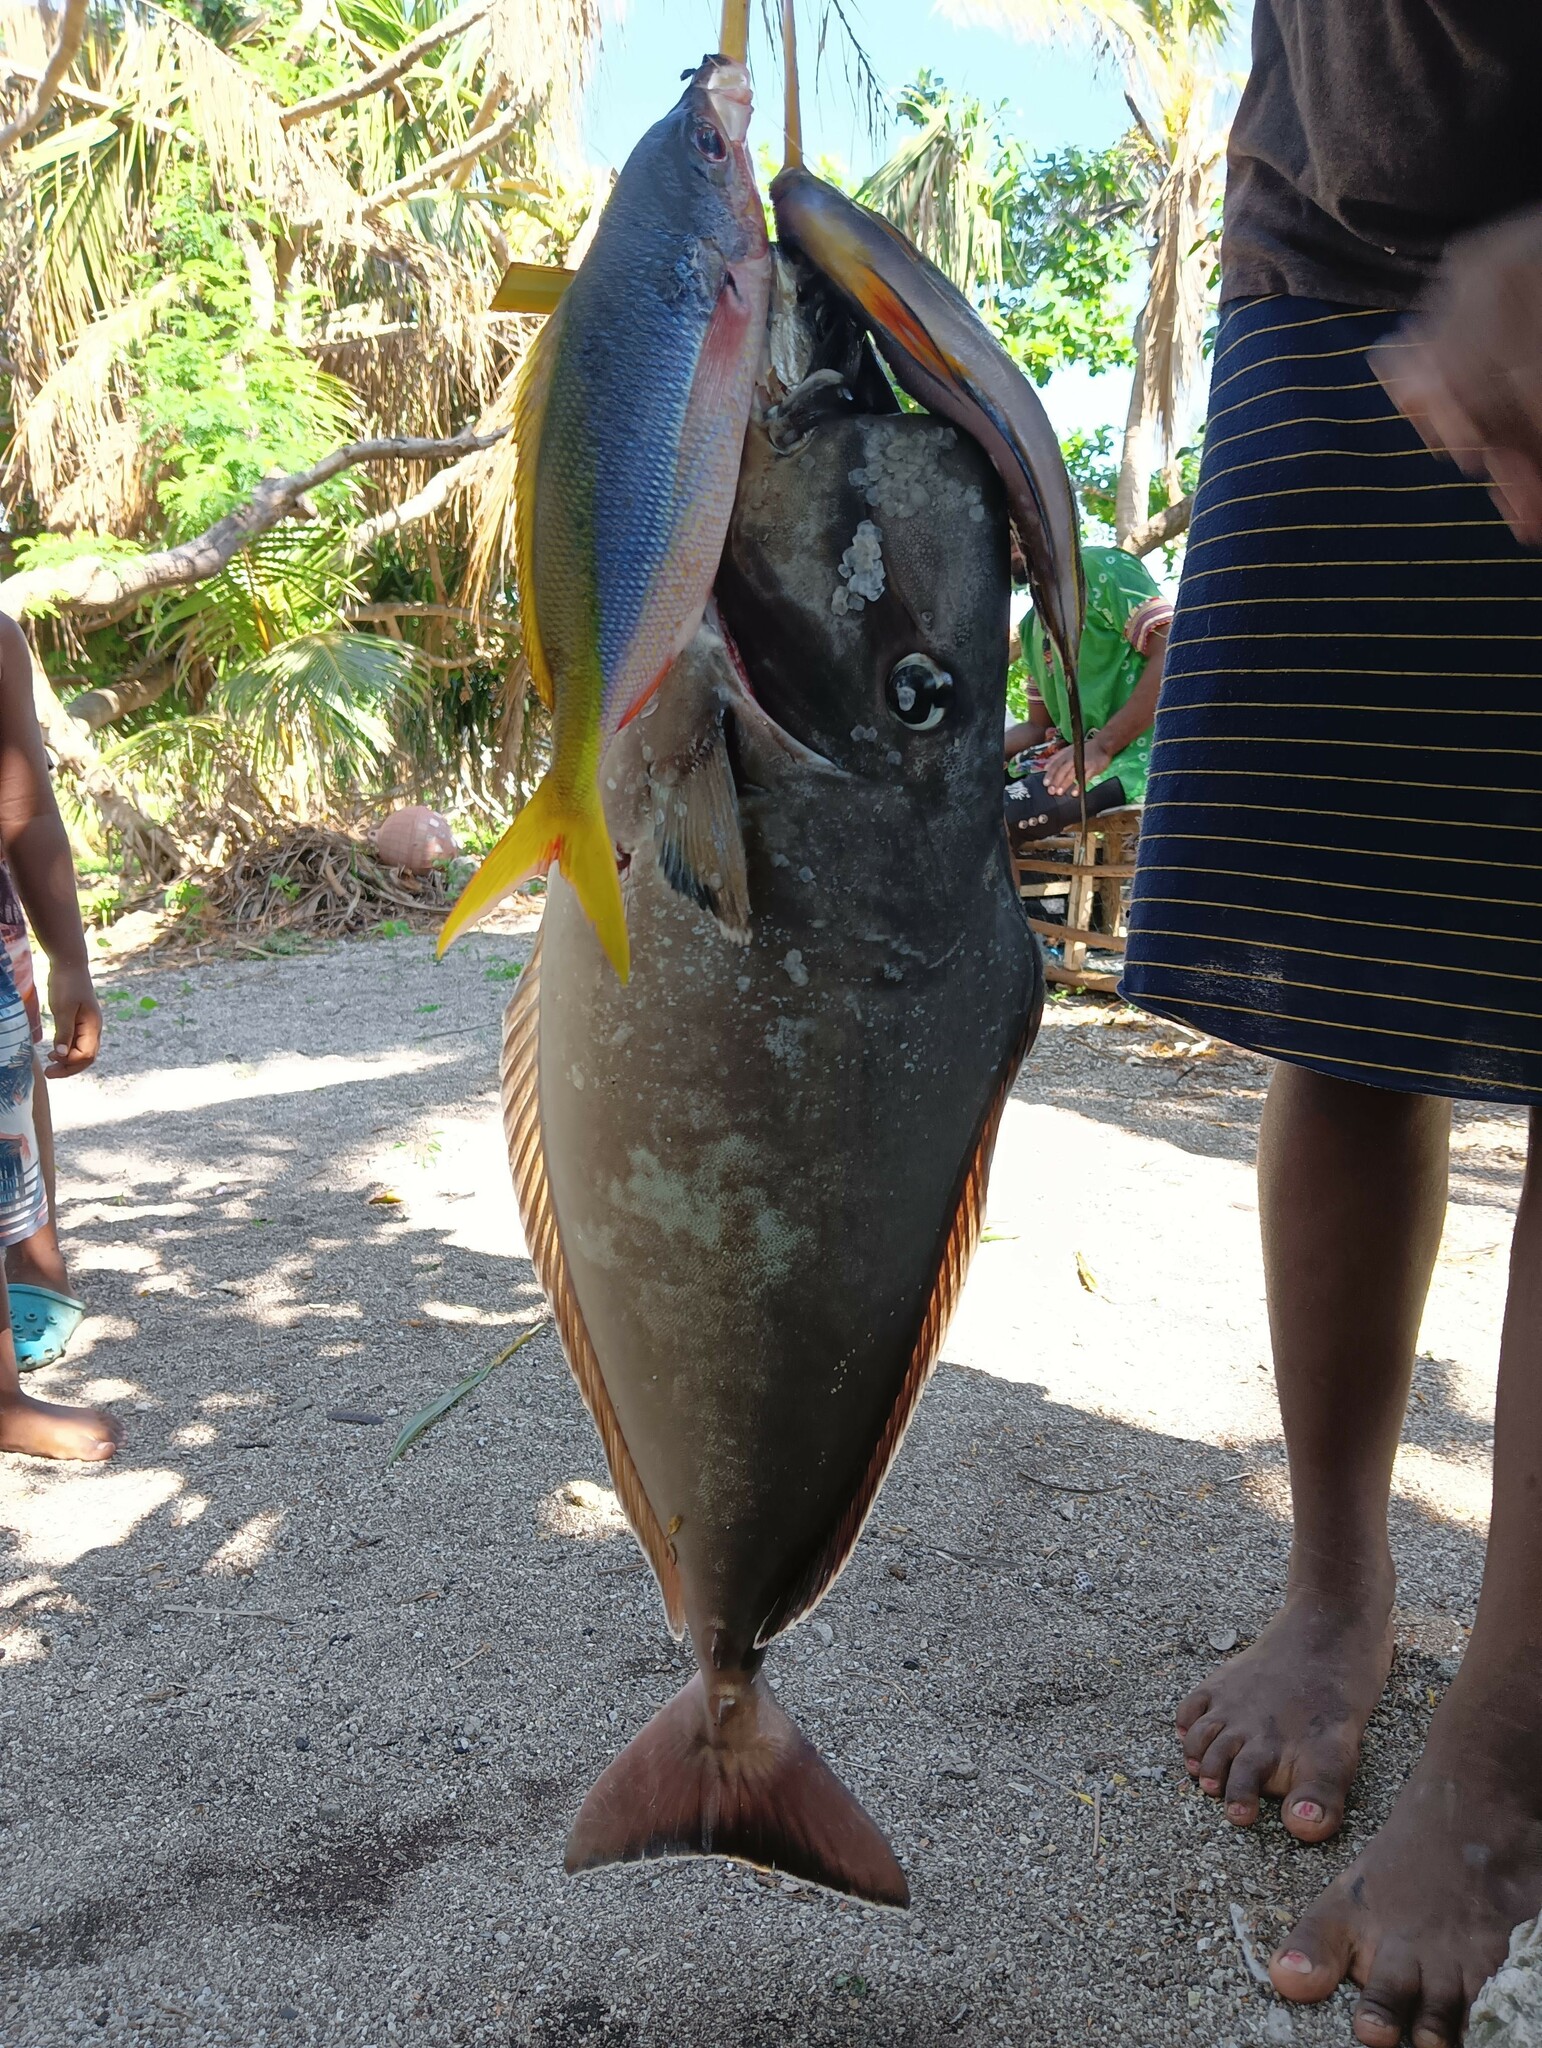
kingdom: Animalia
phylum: Chordata
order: Perciformes
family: Caesionidae
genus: Caesio
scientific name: Caesio teres
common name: Yellow and blueback fusilier
